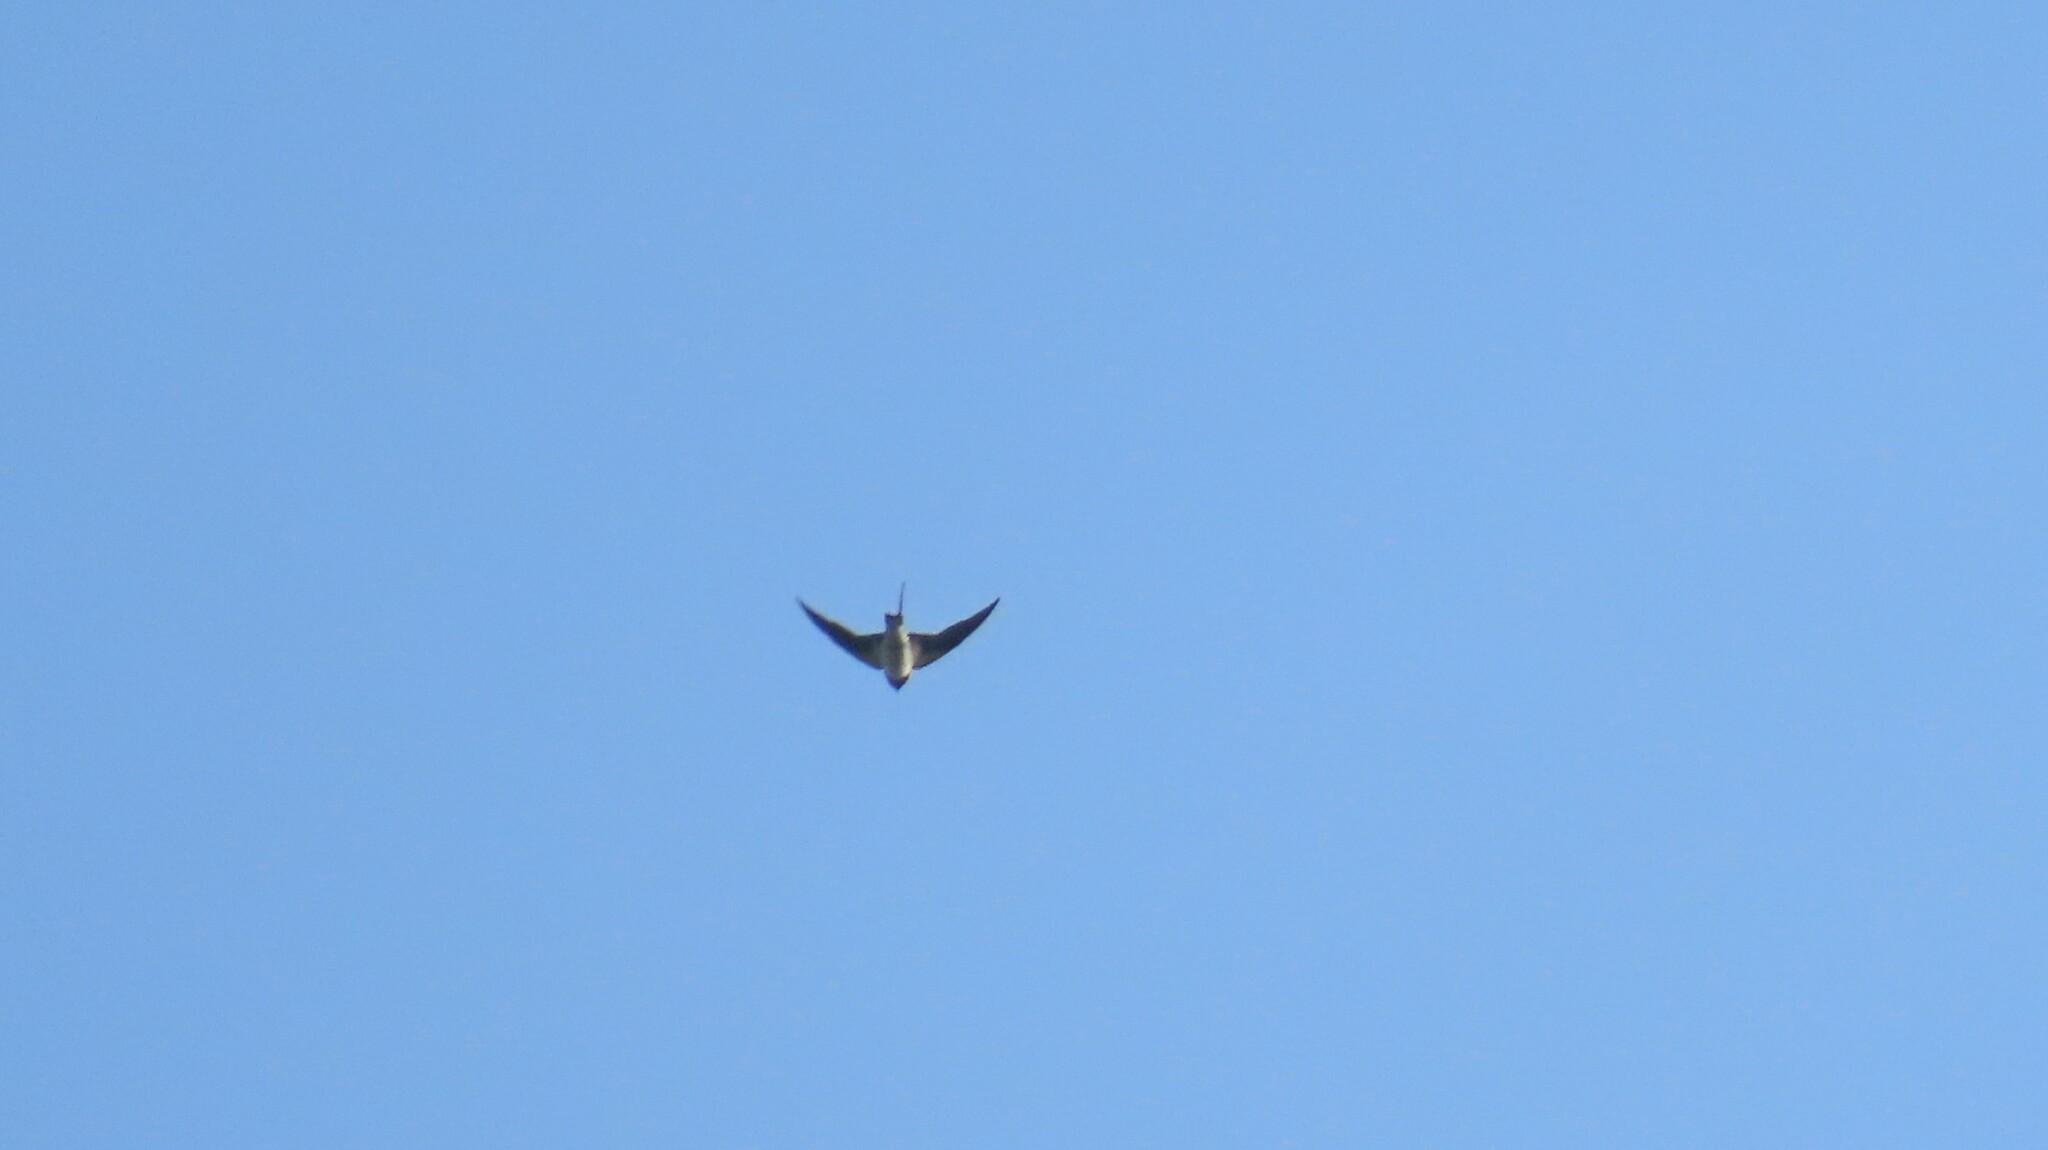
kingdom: Animalia
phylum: Chordata
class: Aves
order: Passeriformes
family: Hirundinidae
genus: Hirundo
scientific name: Hirundo rustica
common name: Barn swallow
